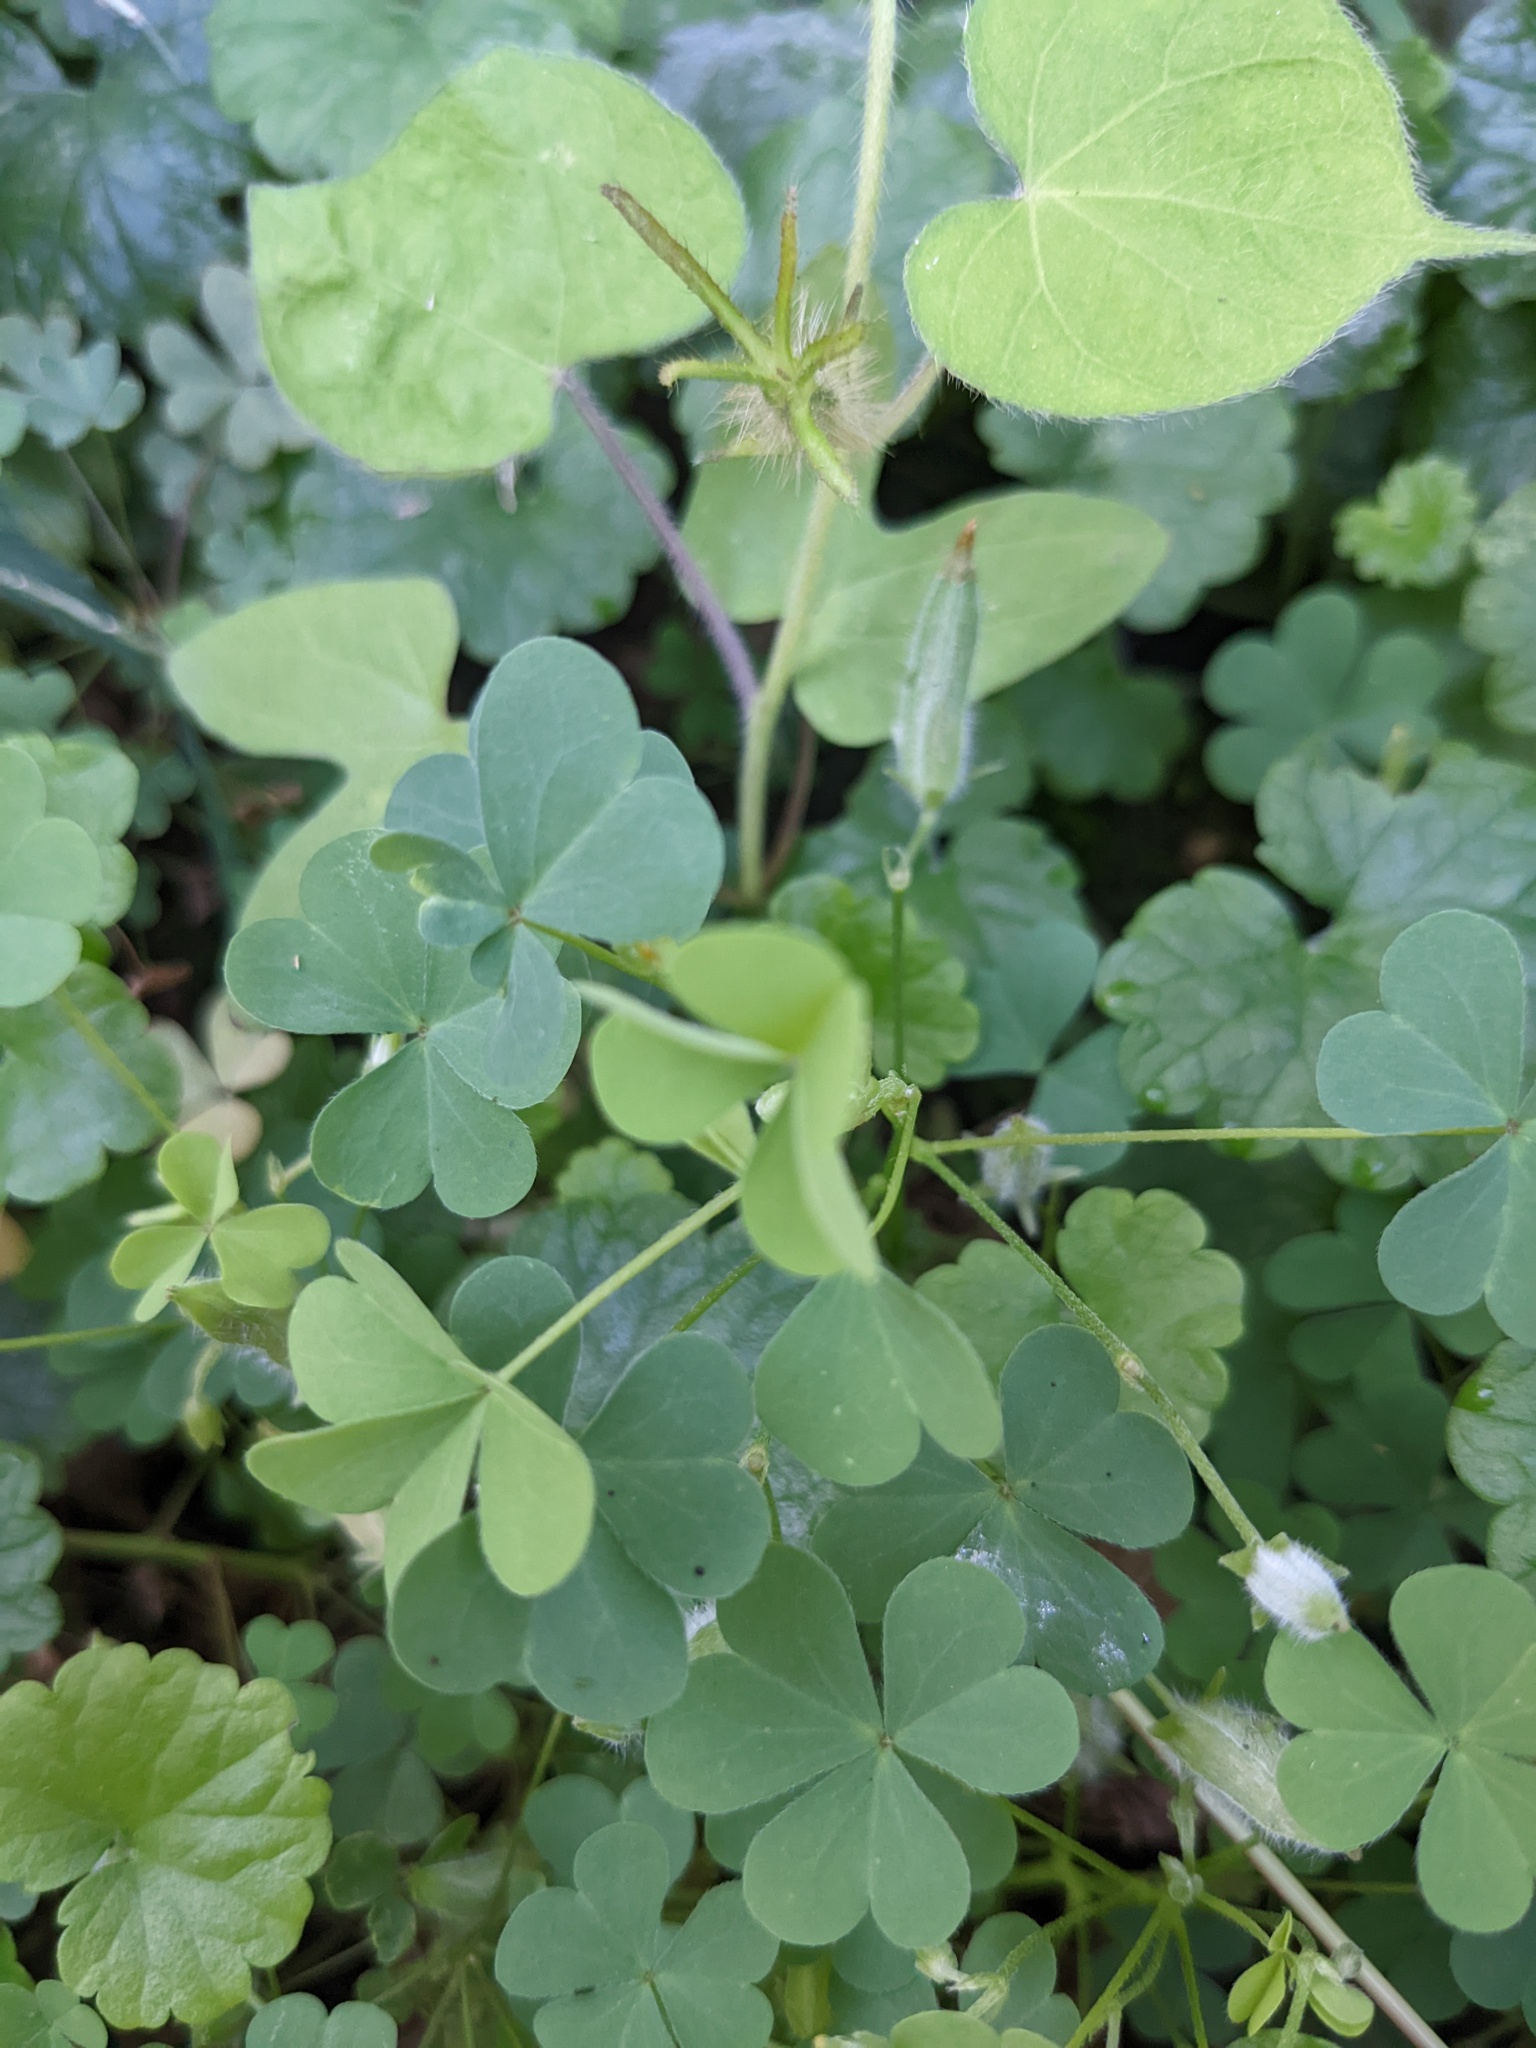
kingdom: Plantae
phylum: Tracheophyta
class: Magnoliopsida
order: Solanales
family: Convolvulaceae
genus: Ipomoea
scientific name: Ipomoea hederacea
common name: Ivy-leaved morning-glory
